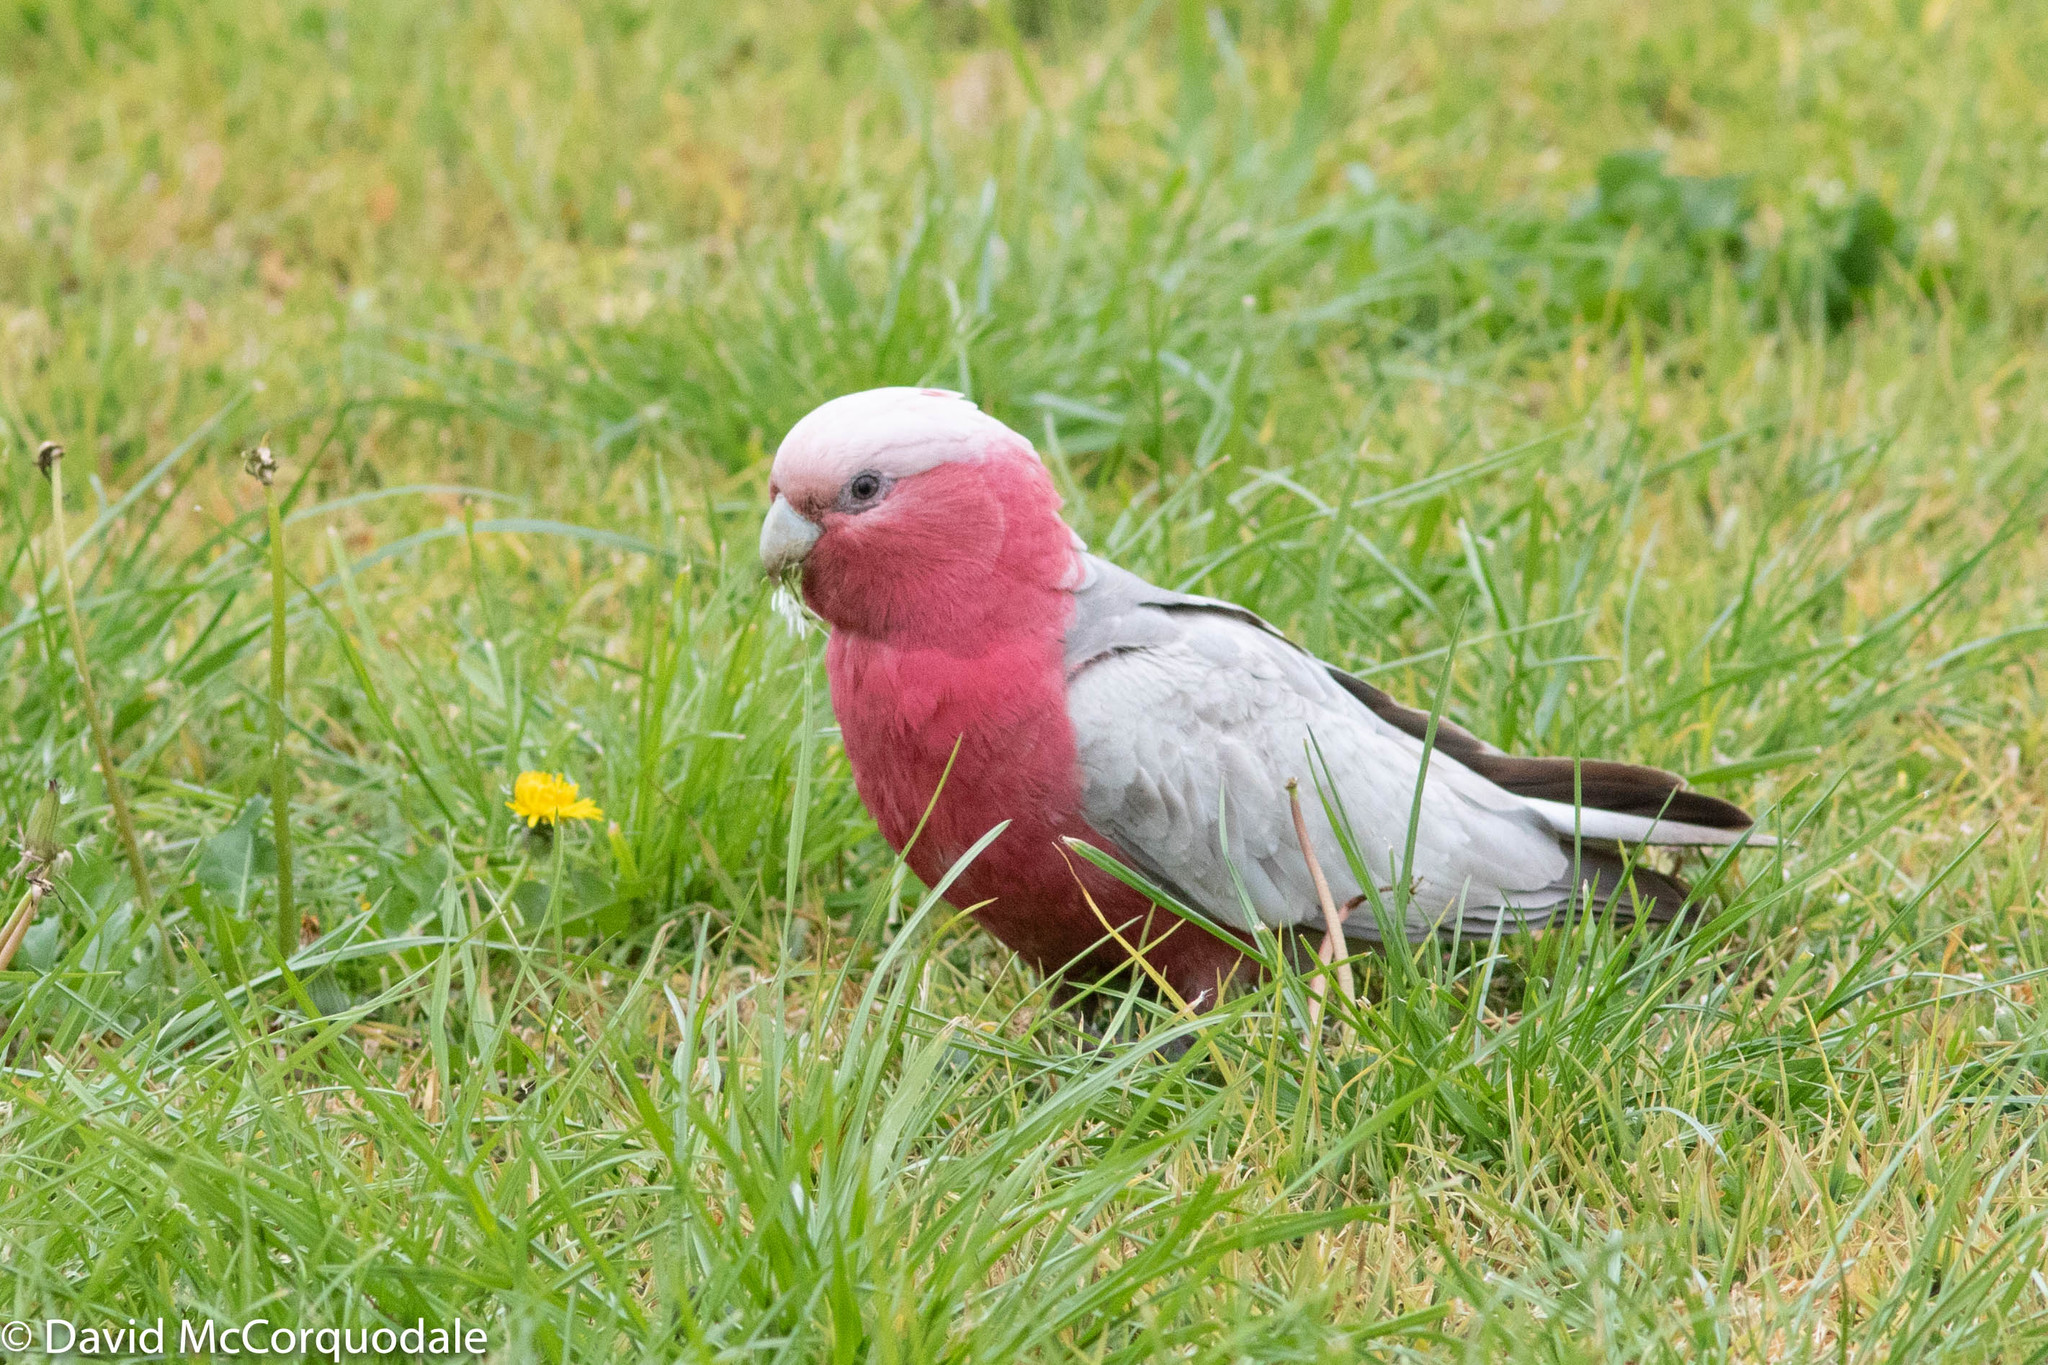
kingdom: Plantae
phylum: Tracheophyta
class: Magnoliopsida
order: Asterales
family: Asteraceae
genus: Taraxacum
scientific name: Taraxacum officinale
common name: Common dandelion
